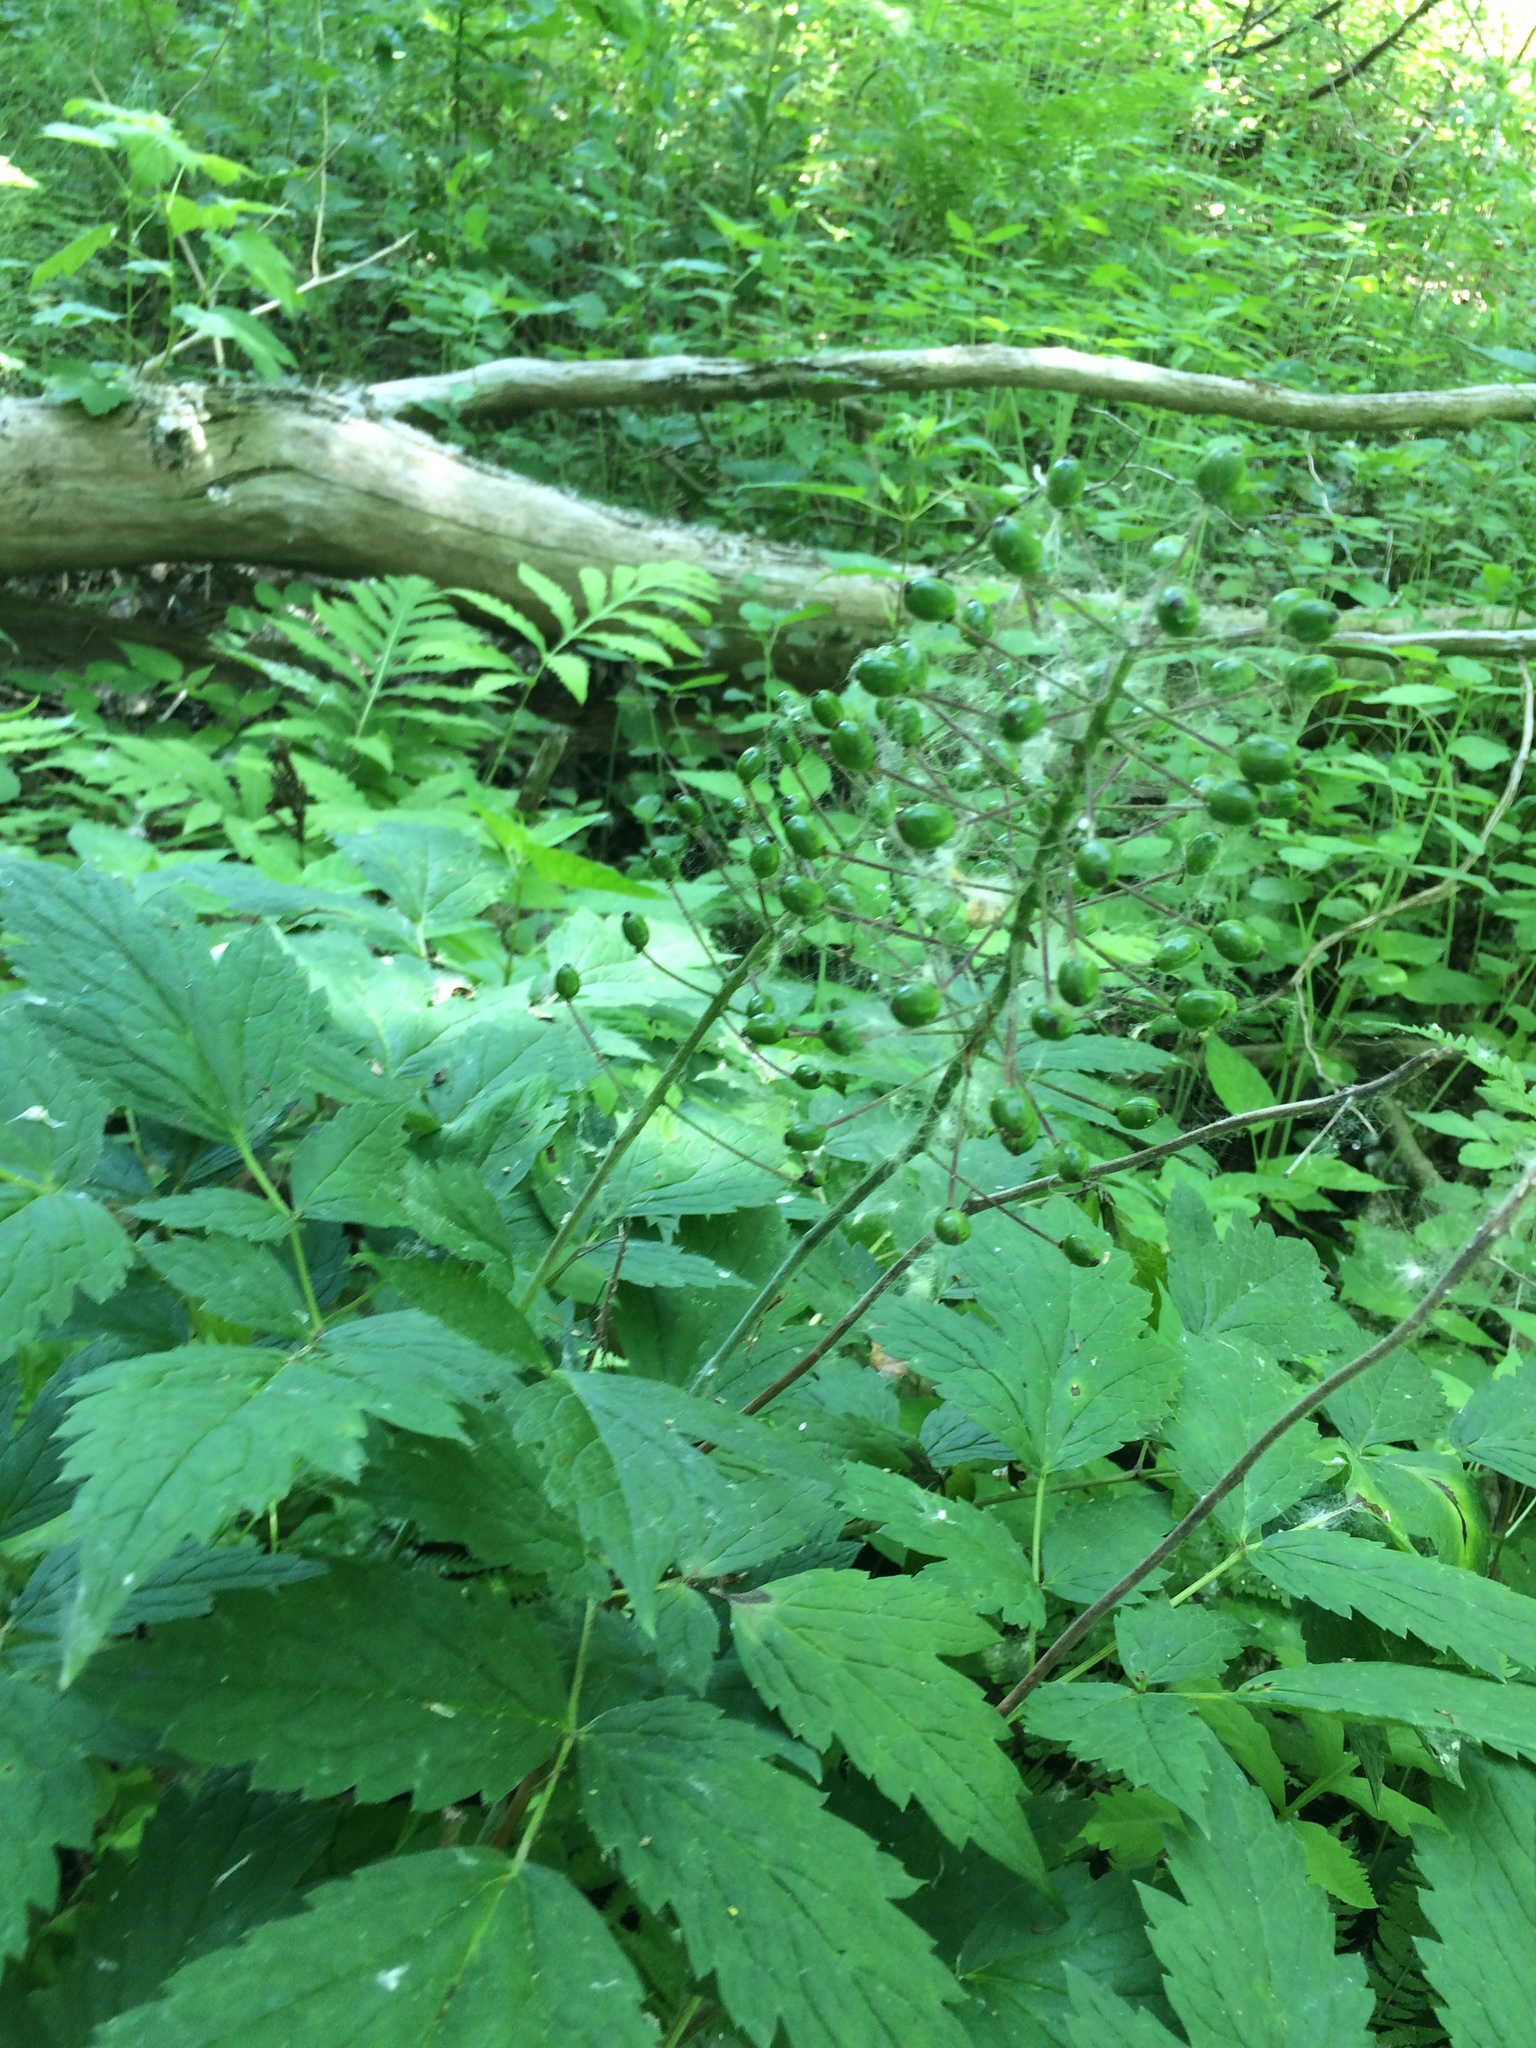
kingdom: Plantae
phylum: Tracheophyta
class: Magnoliopsida
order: Ranunculales
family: Ranunculaceae
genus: Actaea
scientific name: Actaea rubra
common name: Red baneberry
